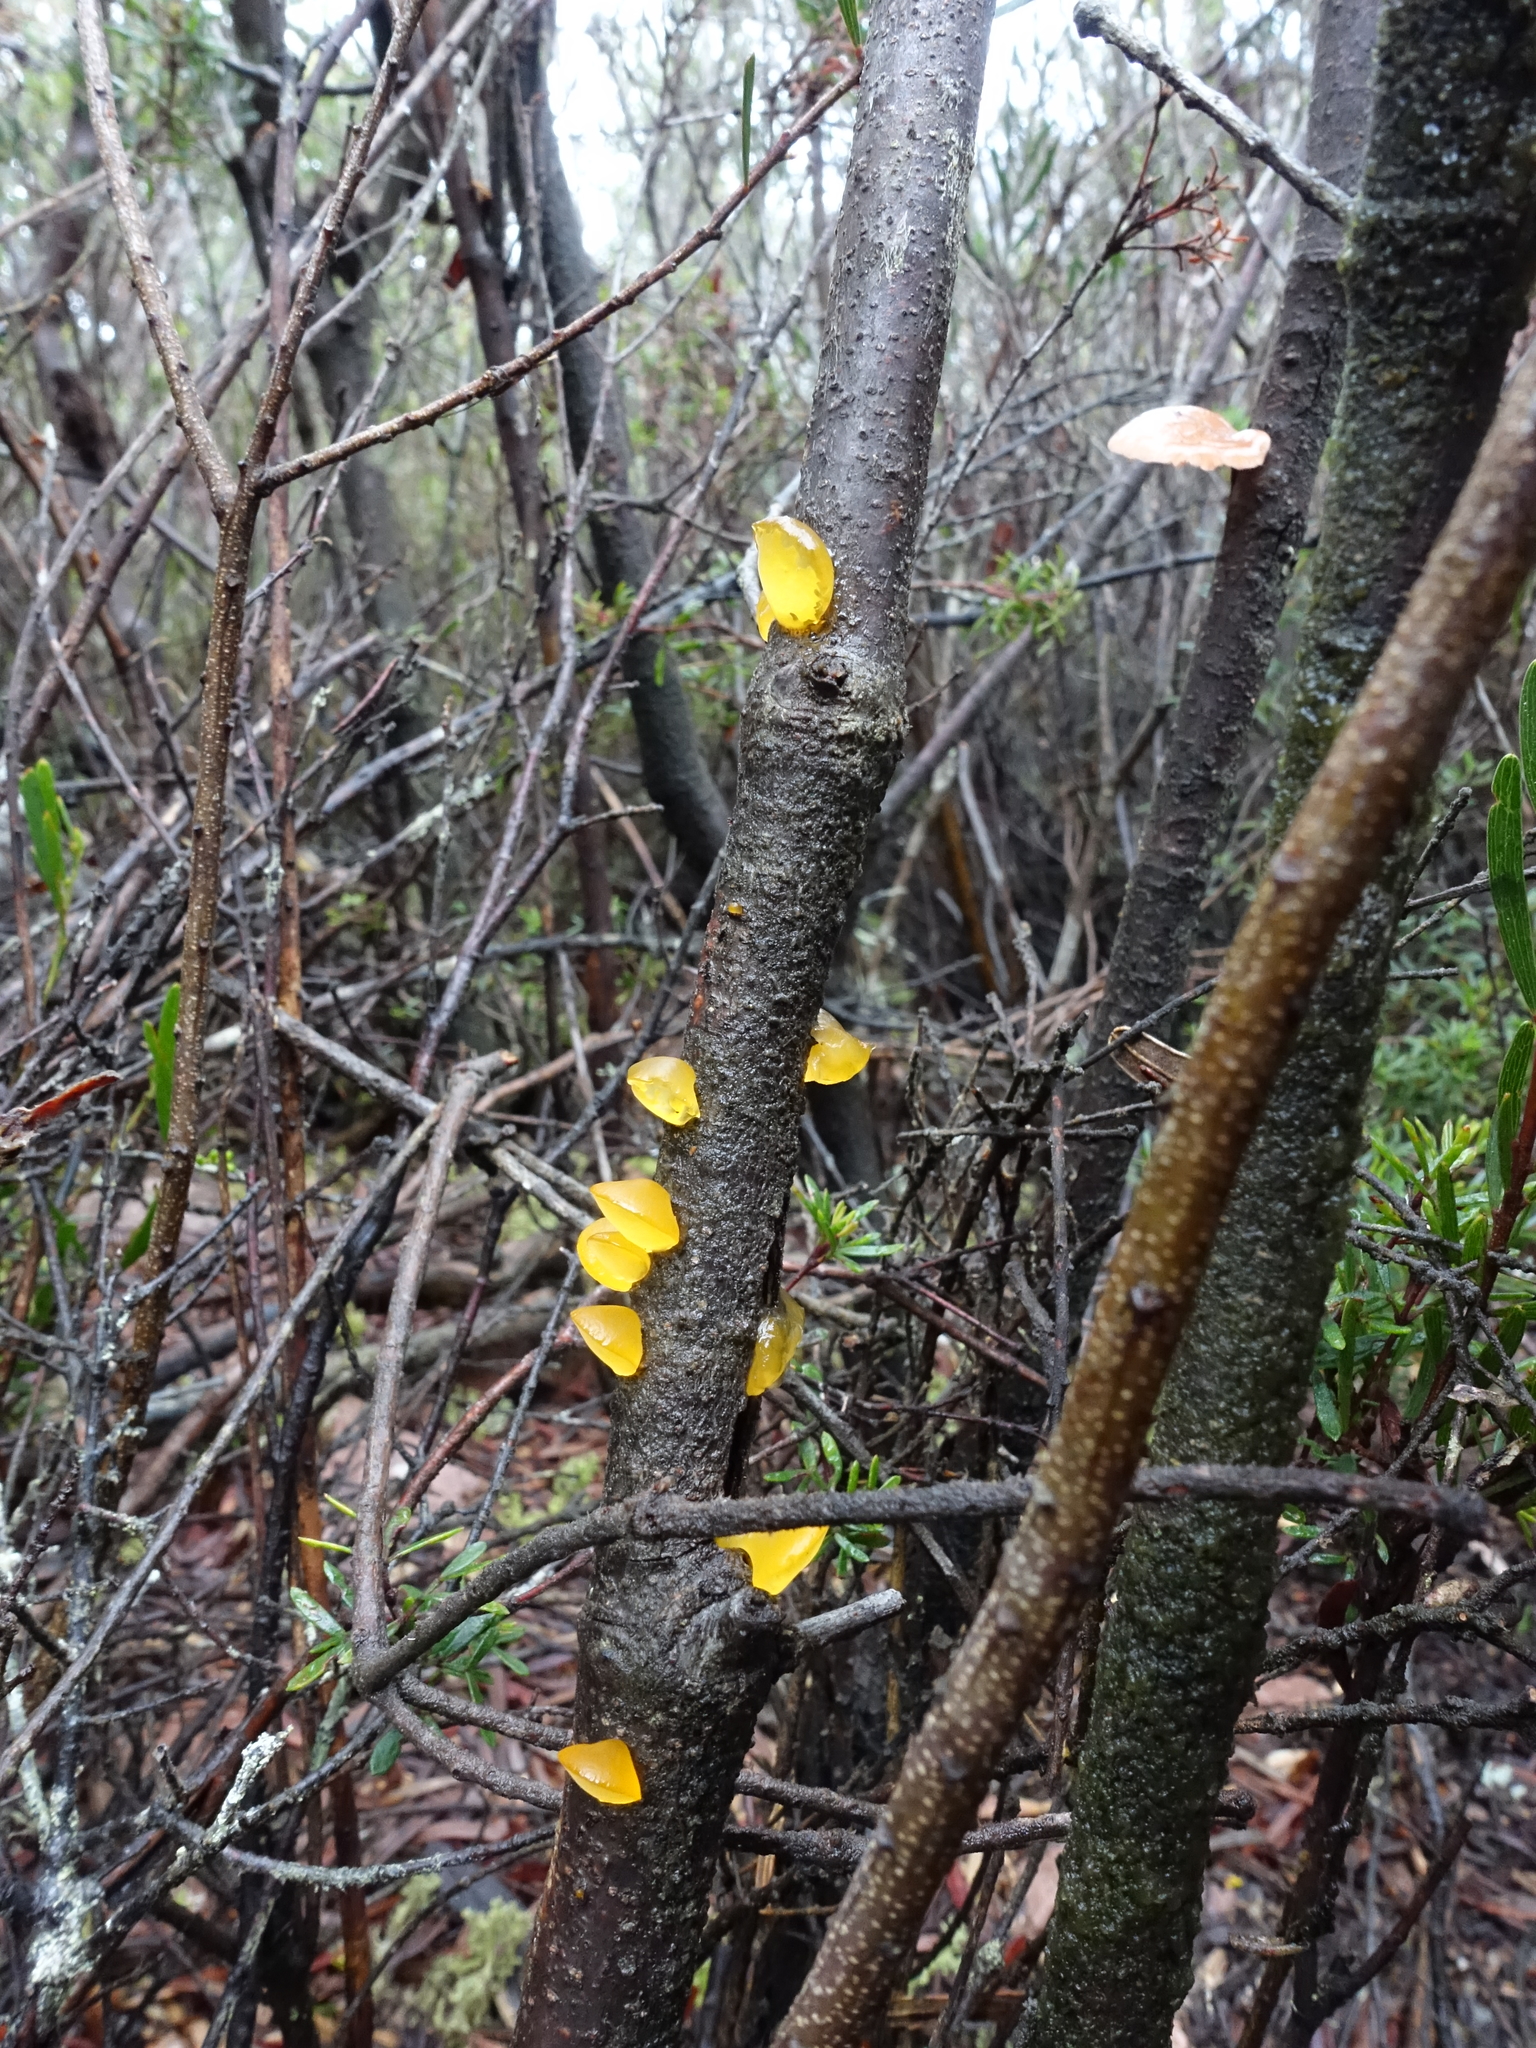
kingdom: Fungi
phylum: Basidiomycota
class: Dacrymycetes
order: Dacrymycetales
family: Dacrymycetaceae
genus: Heterotextus
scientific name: Heterotextus peziziformis
